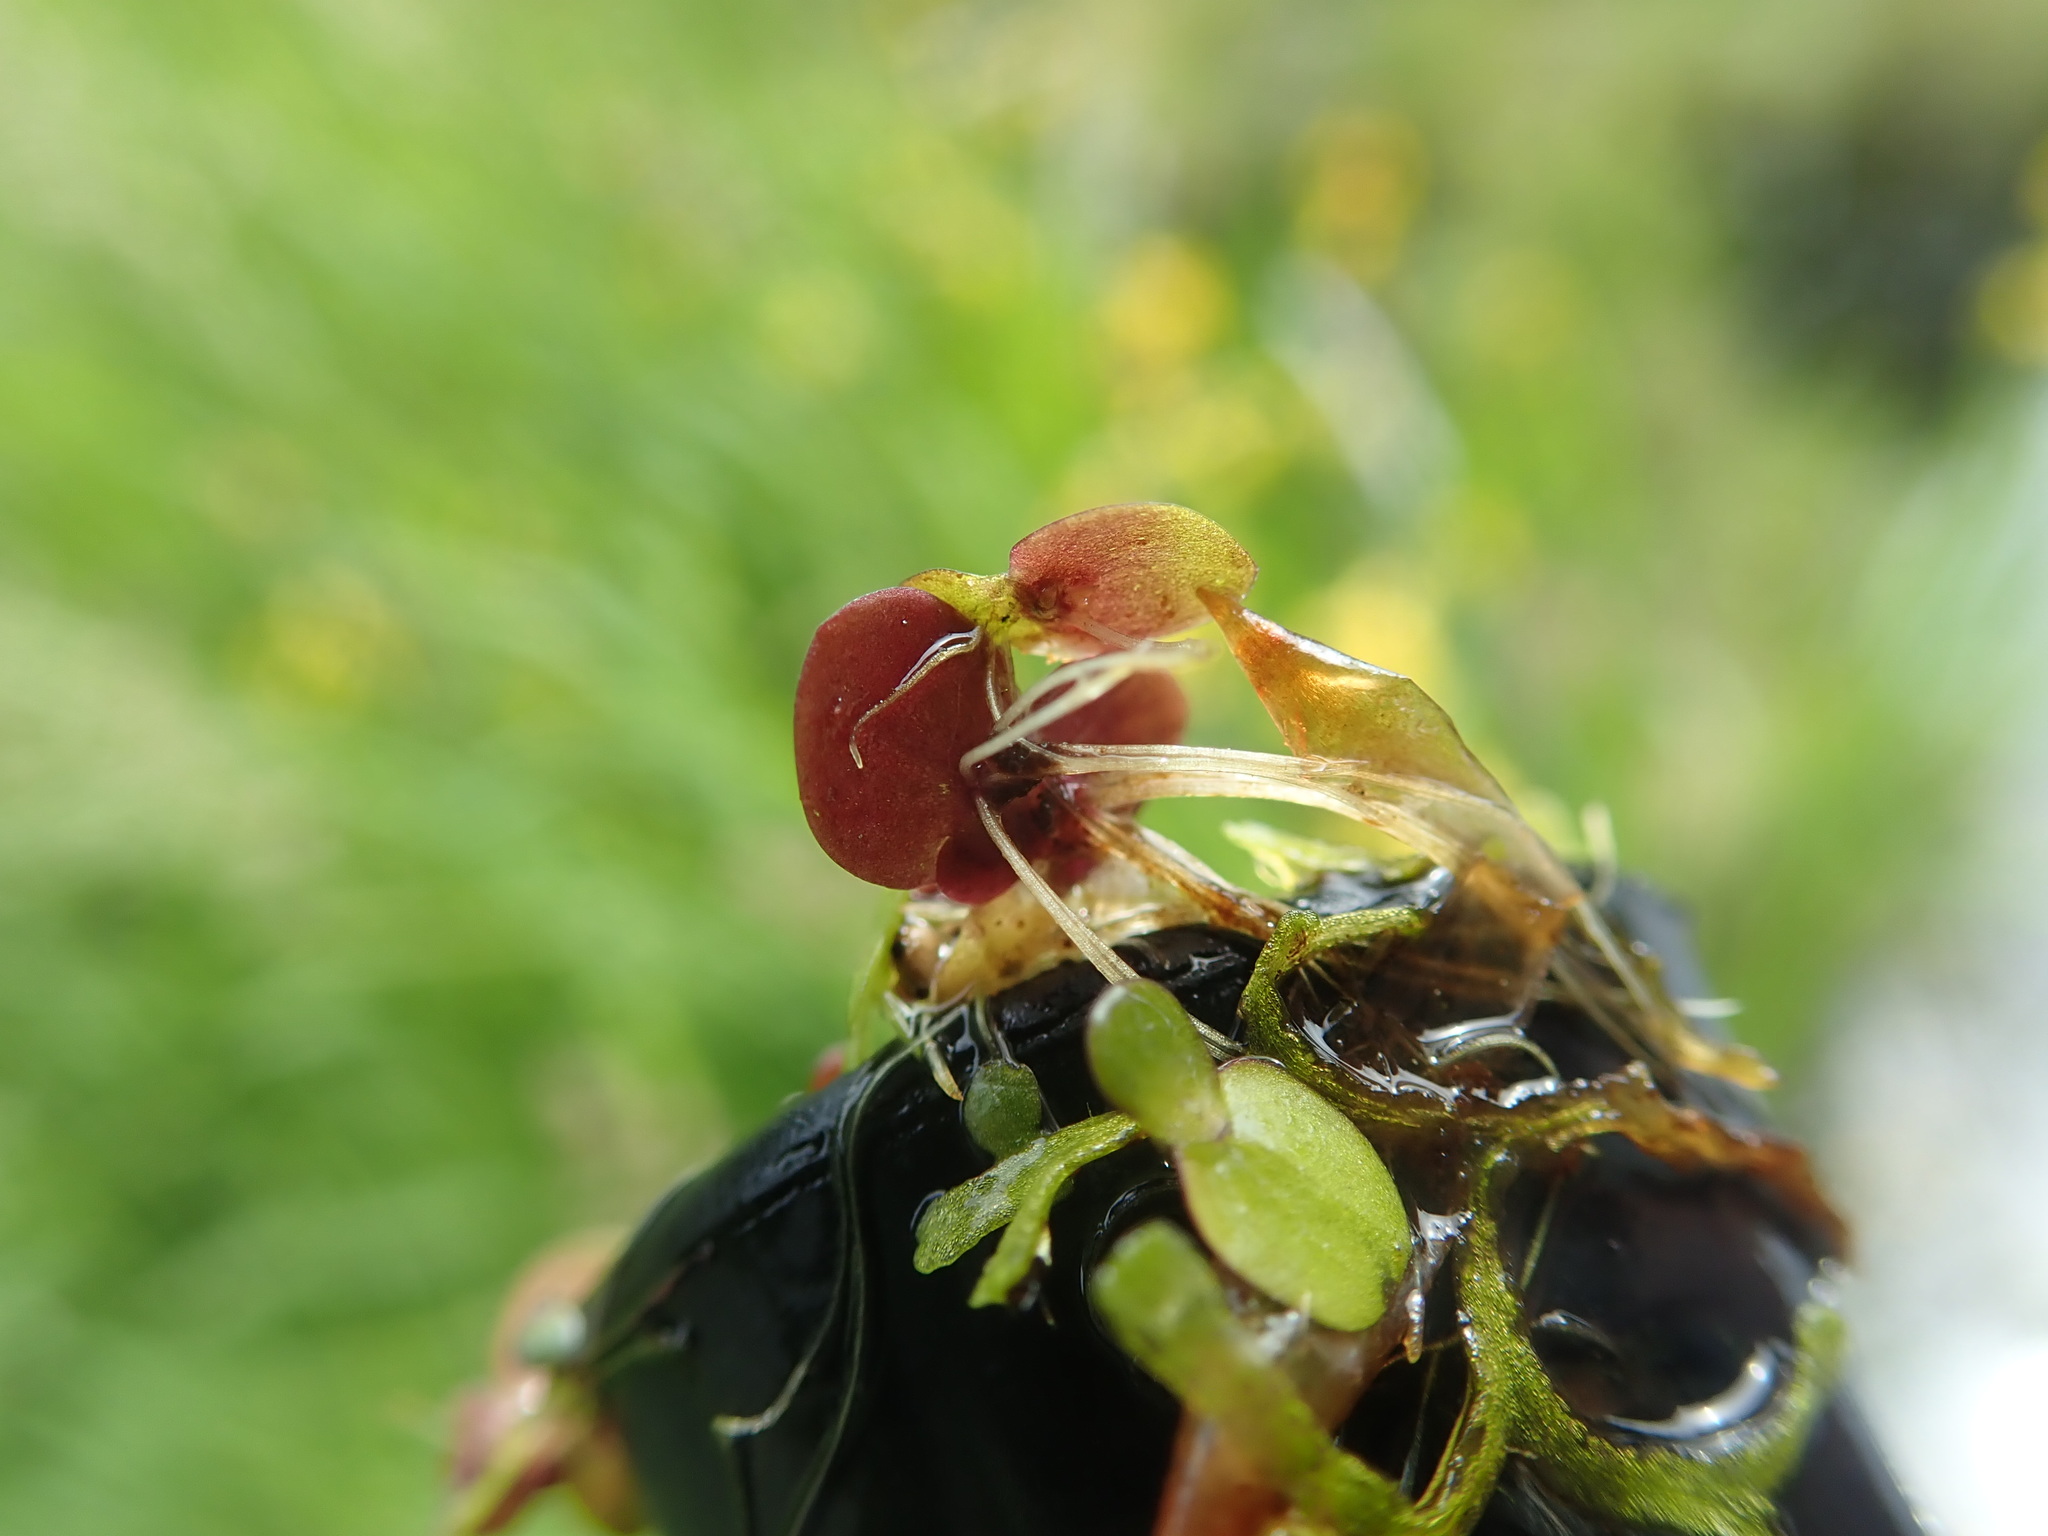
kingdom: Plantae
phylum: Tracheophyta
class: Liliopsida
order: Alismatales
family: Araceae
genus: Spirodela
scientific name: Spirodela polyrhiza
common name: Great duckweed
